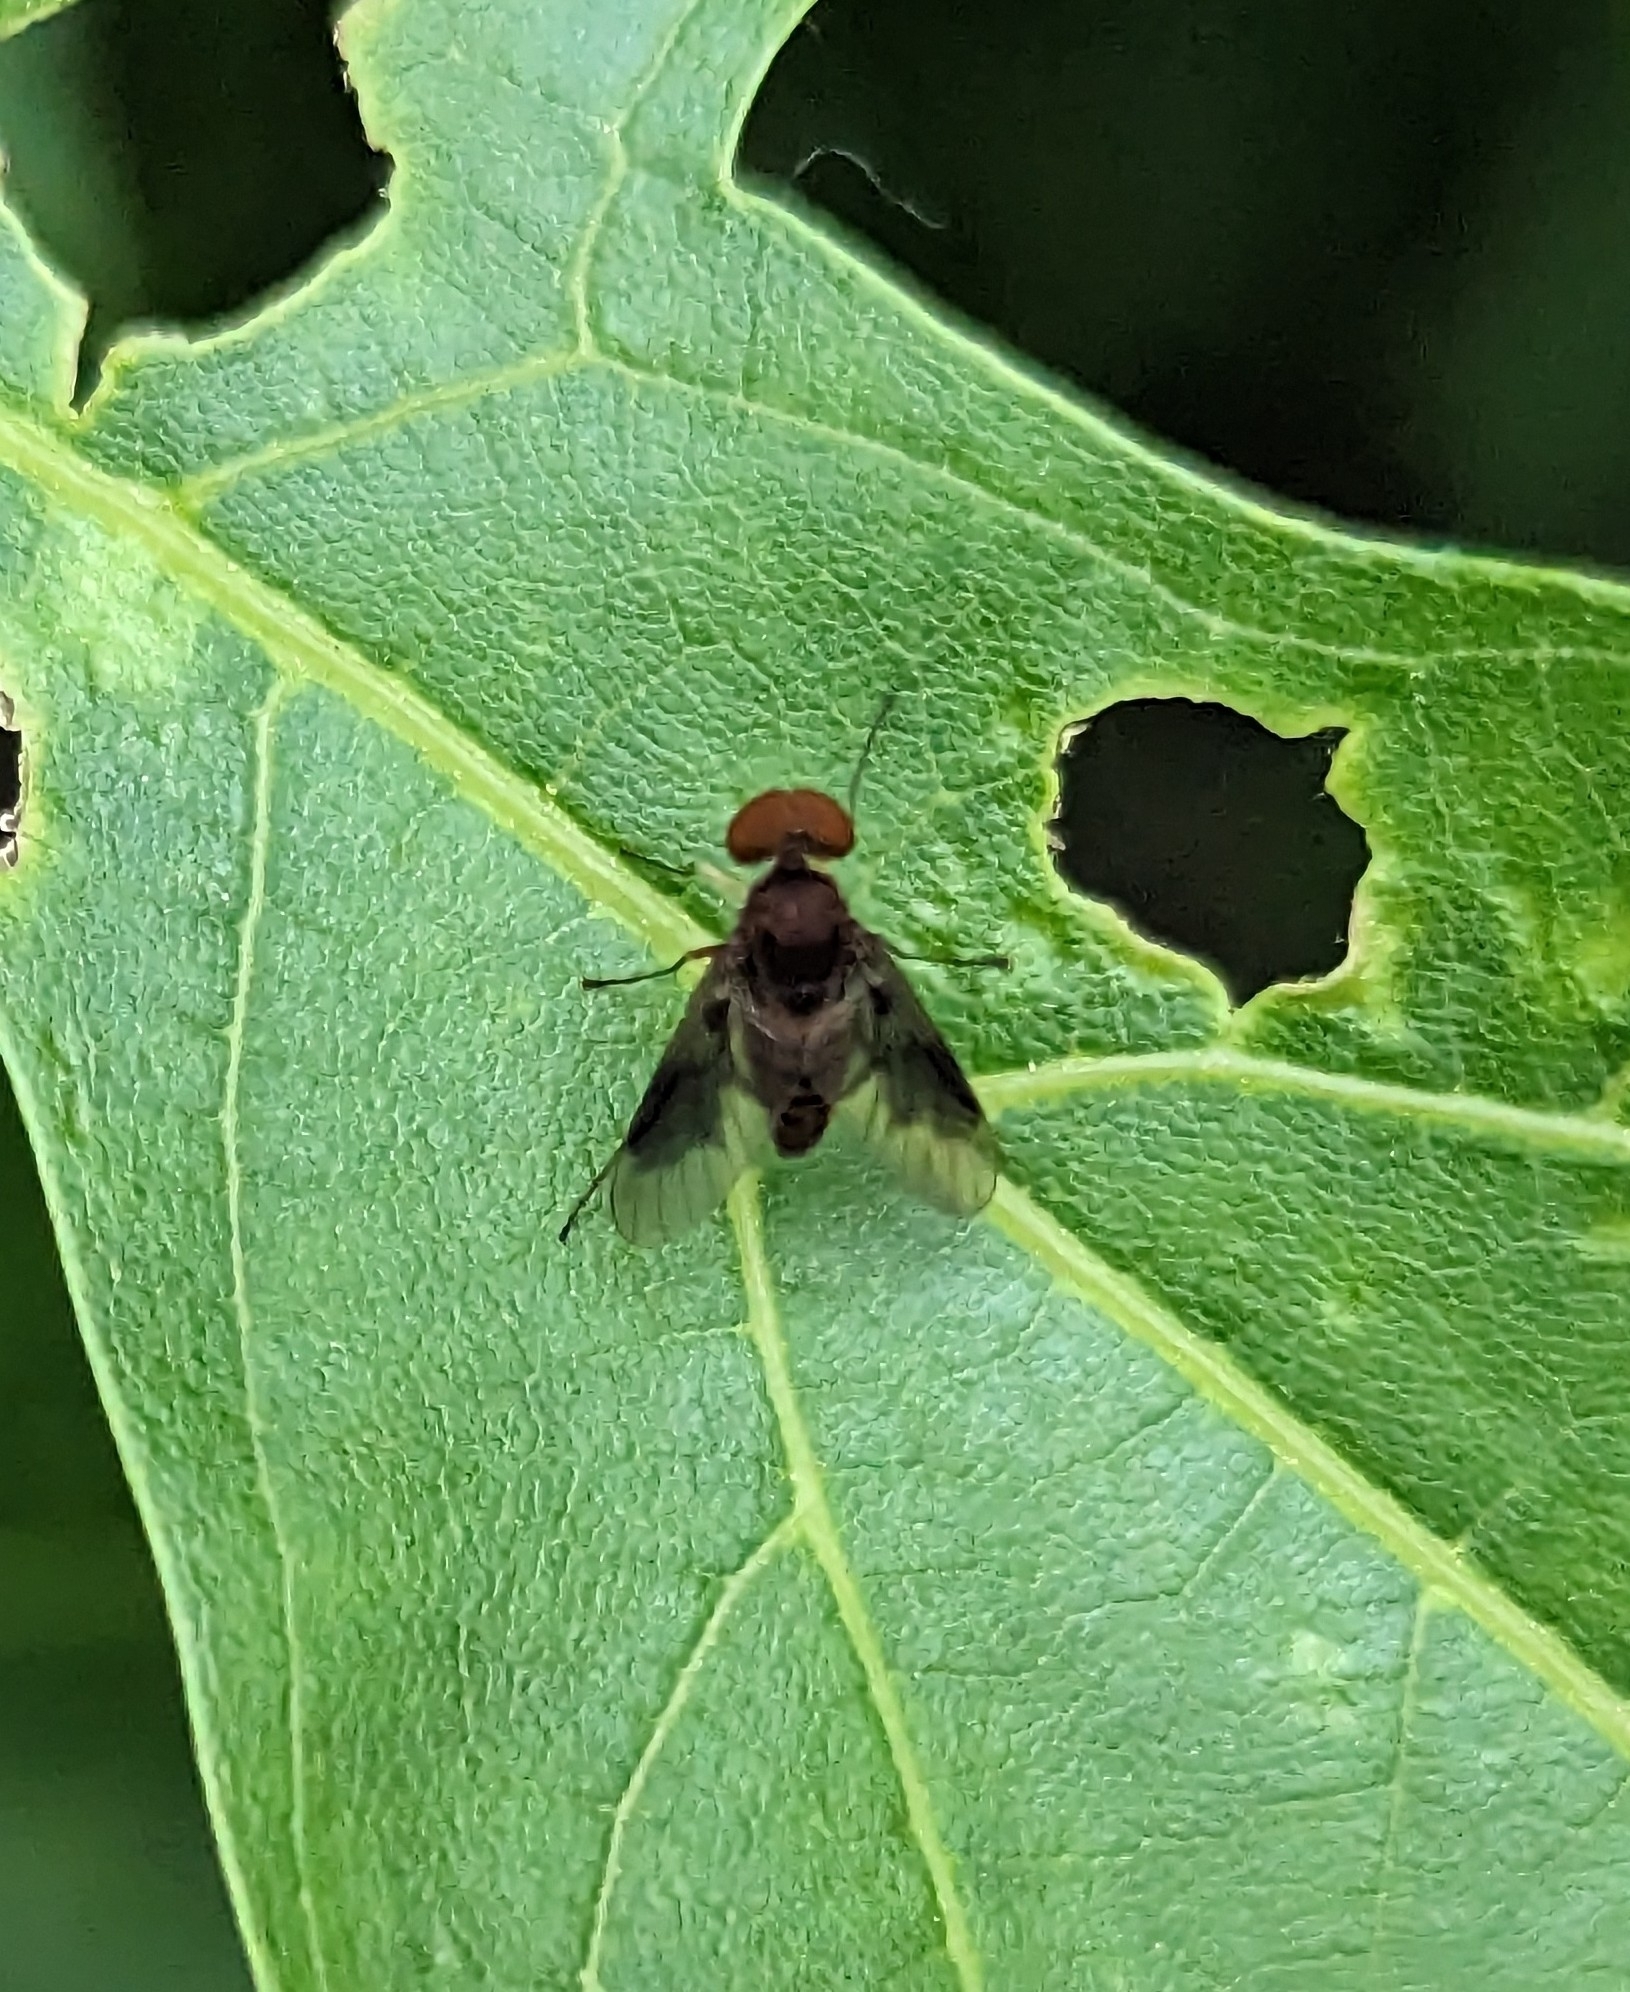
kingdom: Animalia
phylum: Arthropoda
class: Insecta
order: Diptera
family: Rhagionidae
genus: Chrysopilus
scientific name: Chrysopilus quadratus
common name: Quadrate snipe fly
